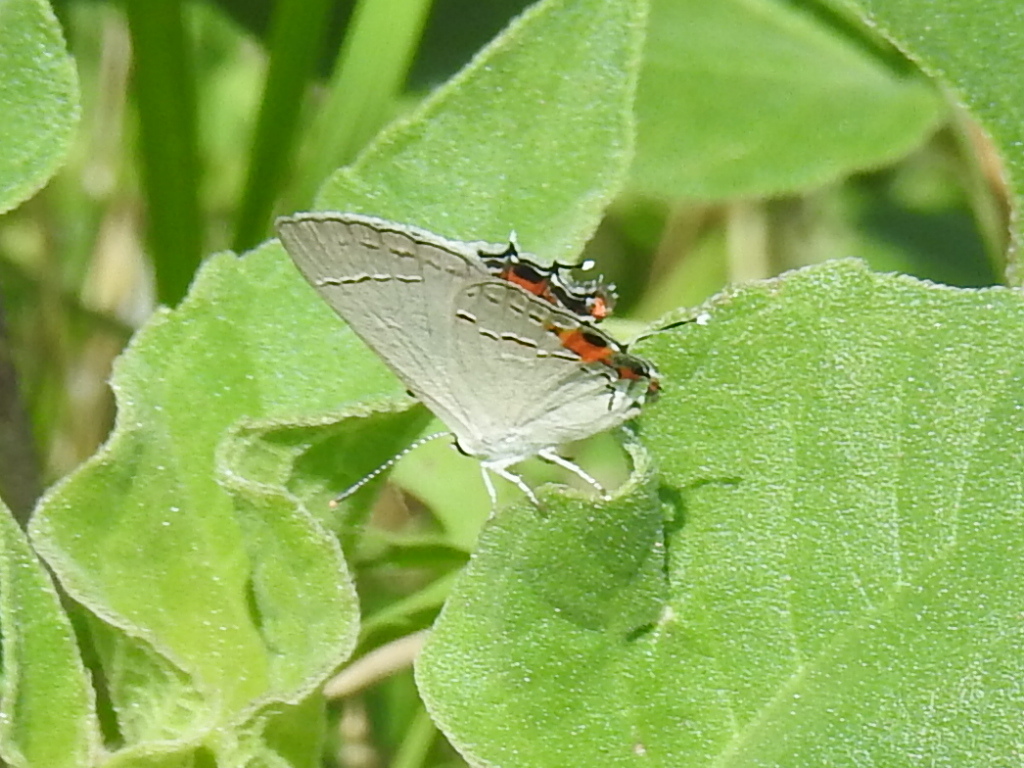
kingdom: Animalia
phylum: Arthropoda
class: Insecta
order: Lepidoptera
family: Lycaenidae
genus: Strymon
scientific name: Strymon melinus
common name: Gray hairstreak
